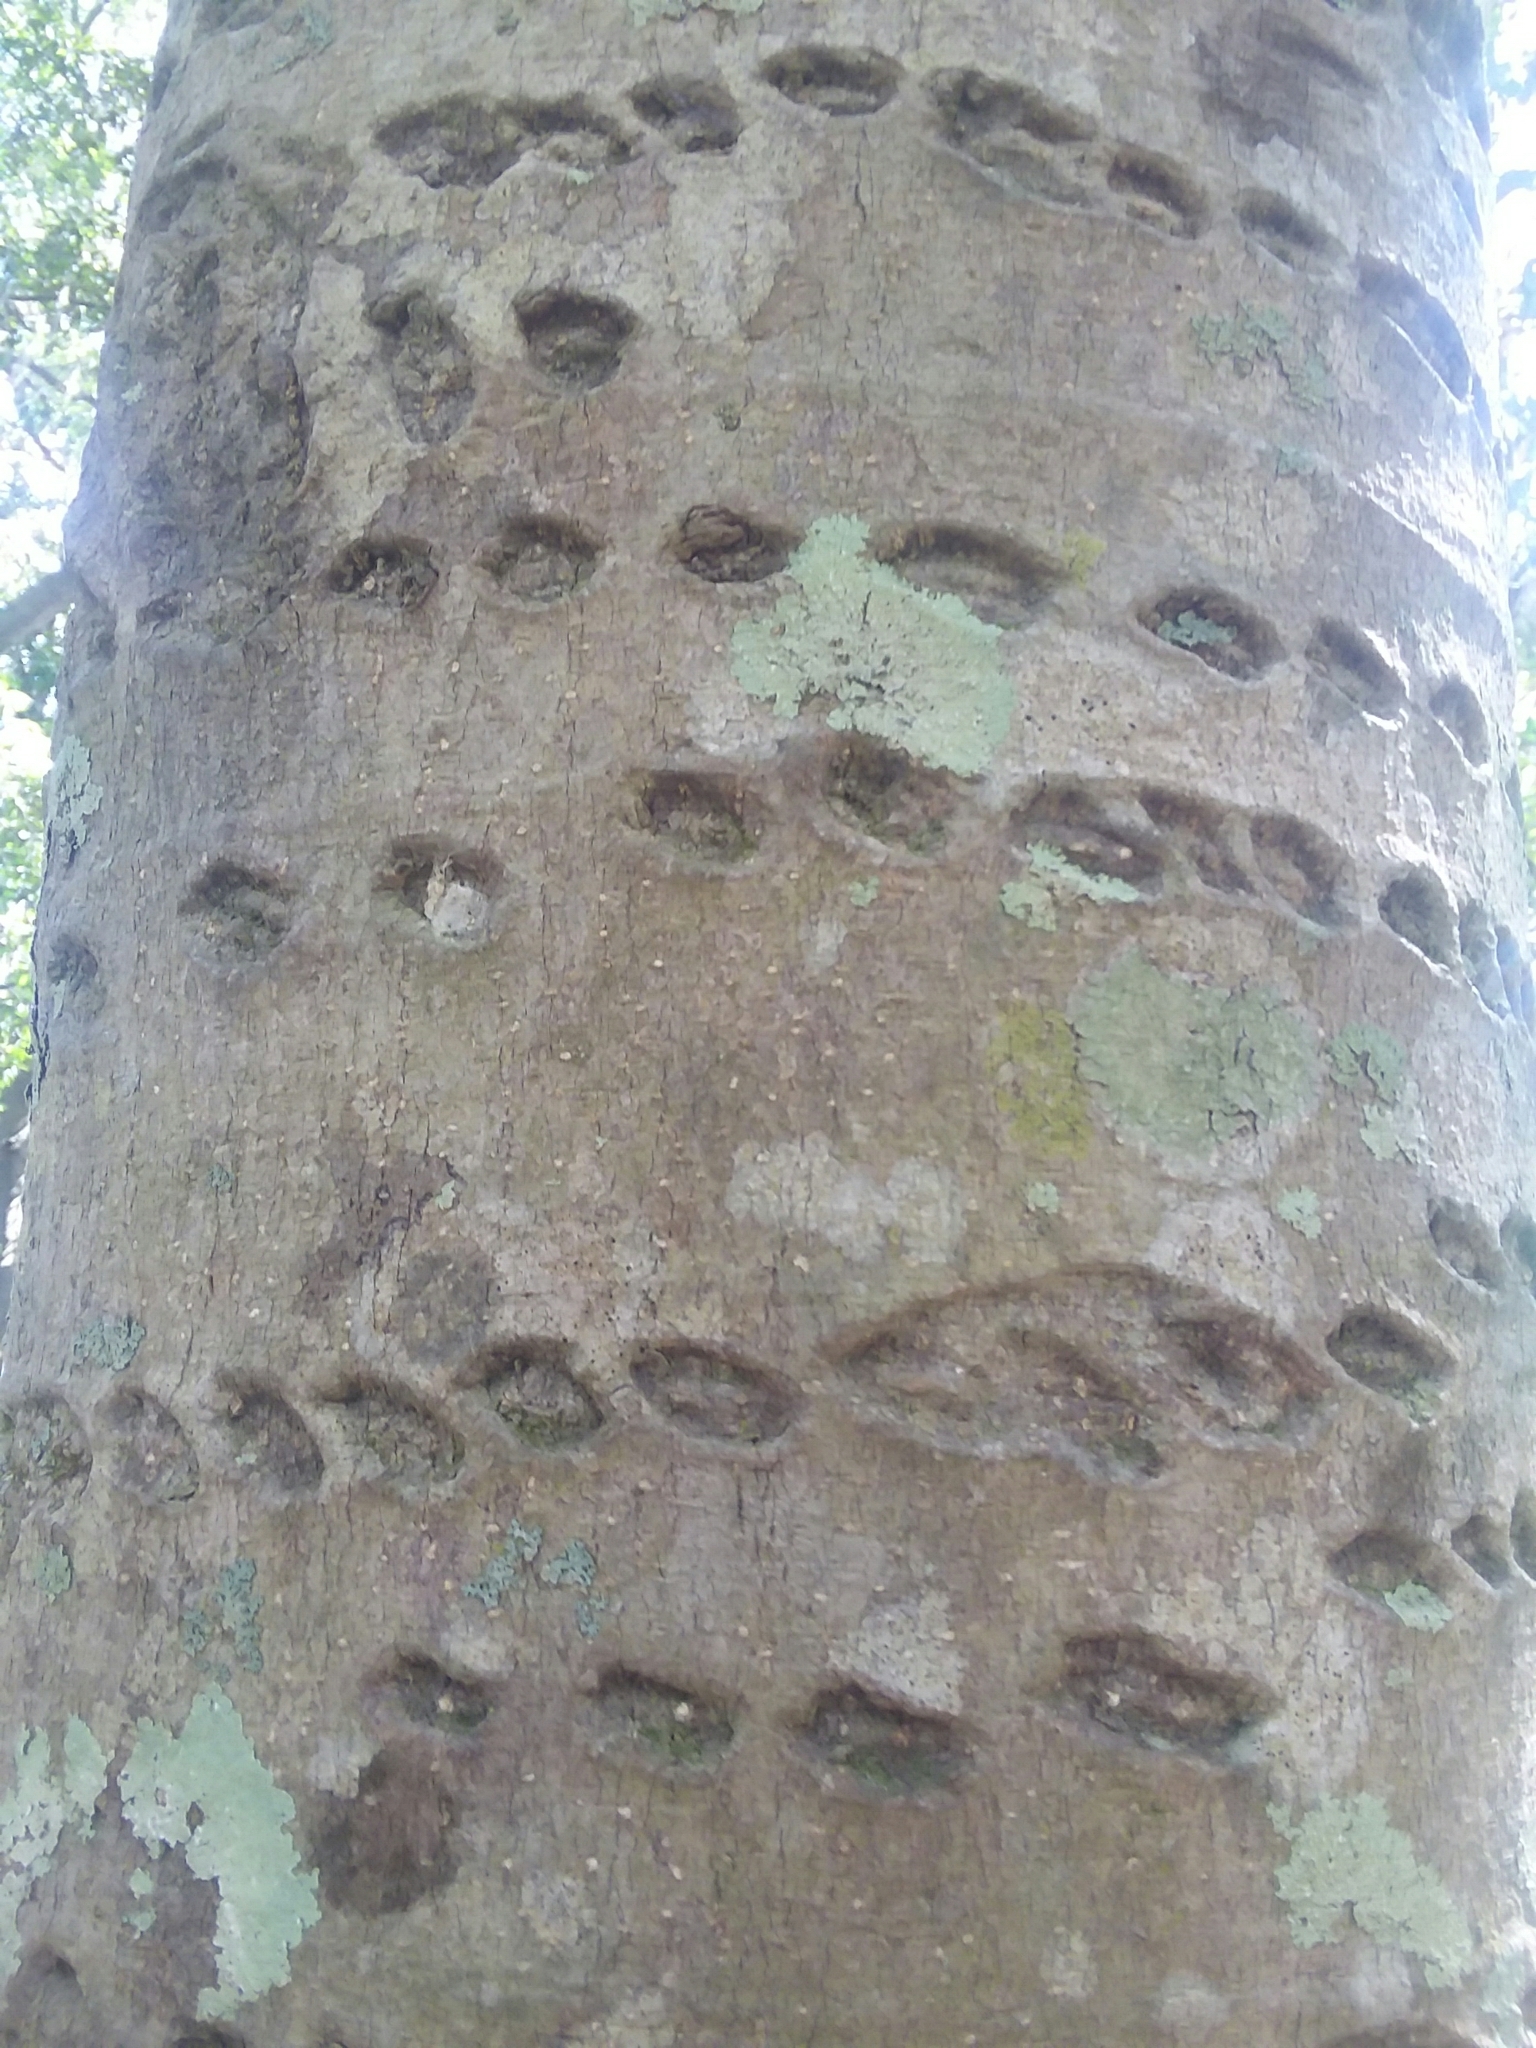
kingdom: Animalia
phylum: Chordata
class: Aves
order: Piciformes
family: Picidae
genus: Sphyrapicus
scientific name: Sphyrapicus varius
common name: Yellow-bellied sapsucker
